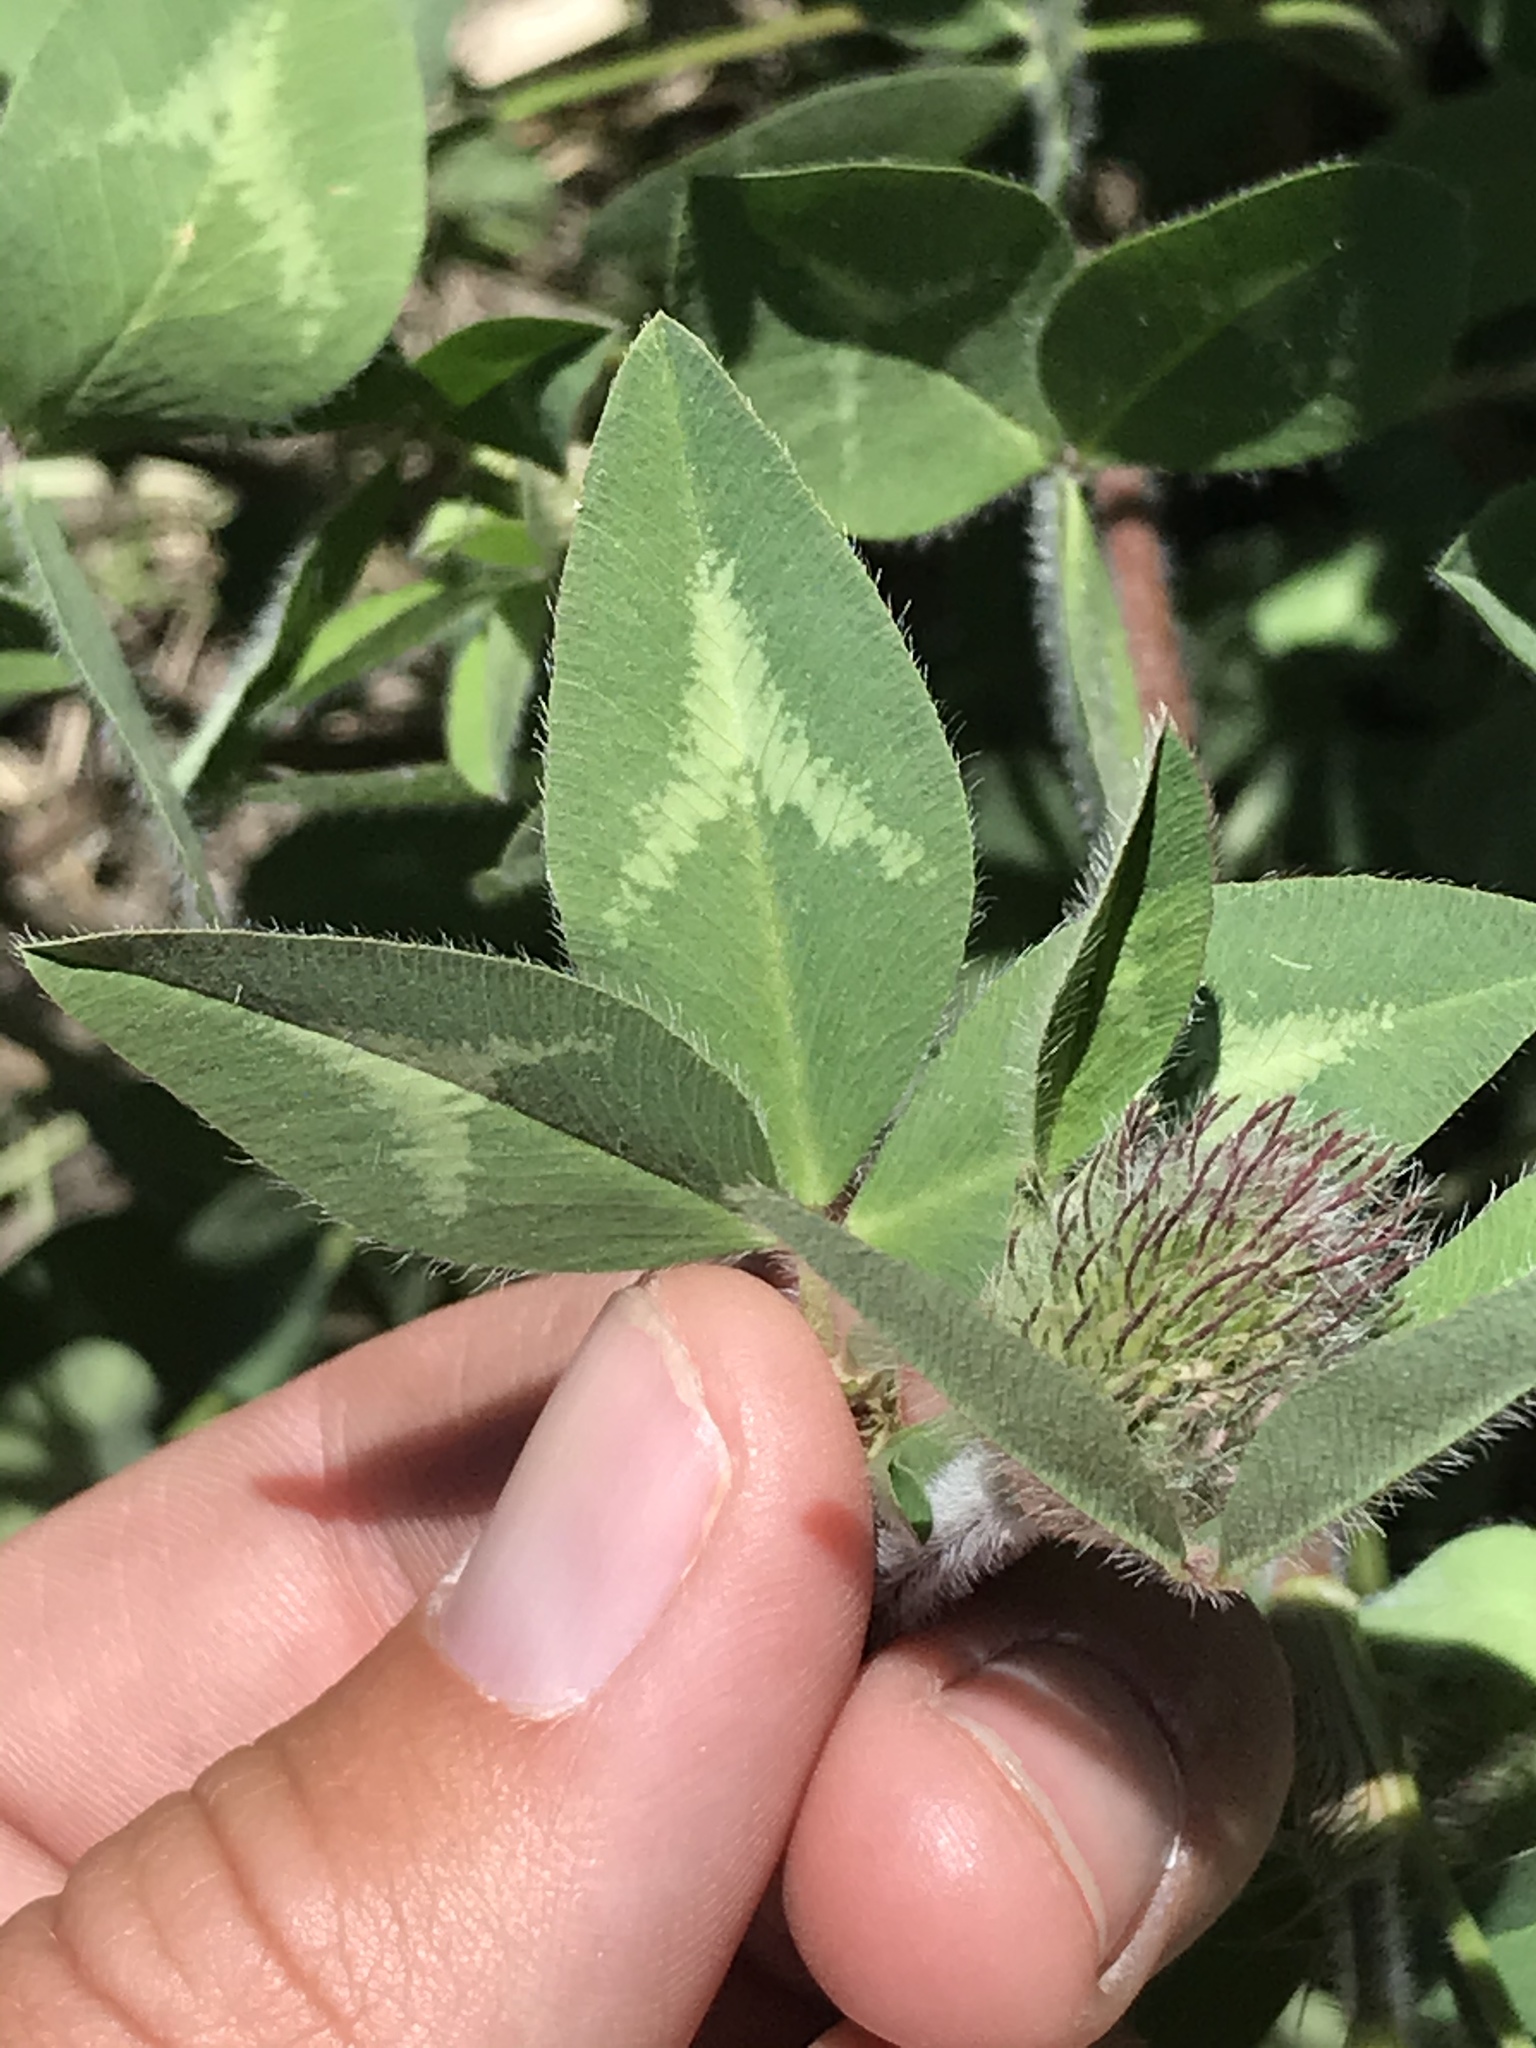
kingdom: Plantae
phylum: Tracheophyta
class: Magnoliopsida
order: Fabales
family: Fabaceae
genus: Trifolium
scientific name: Trifolium pratense
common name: Red clover
